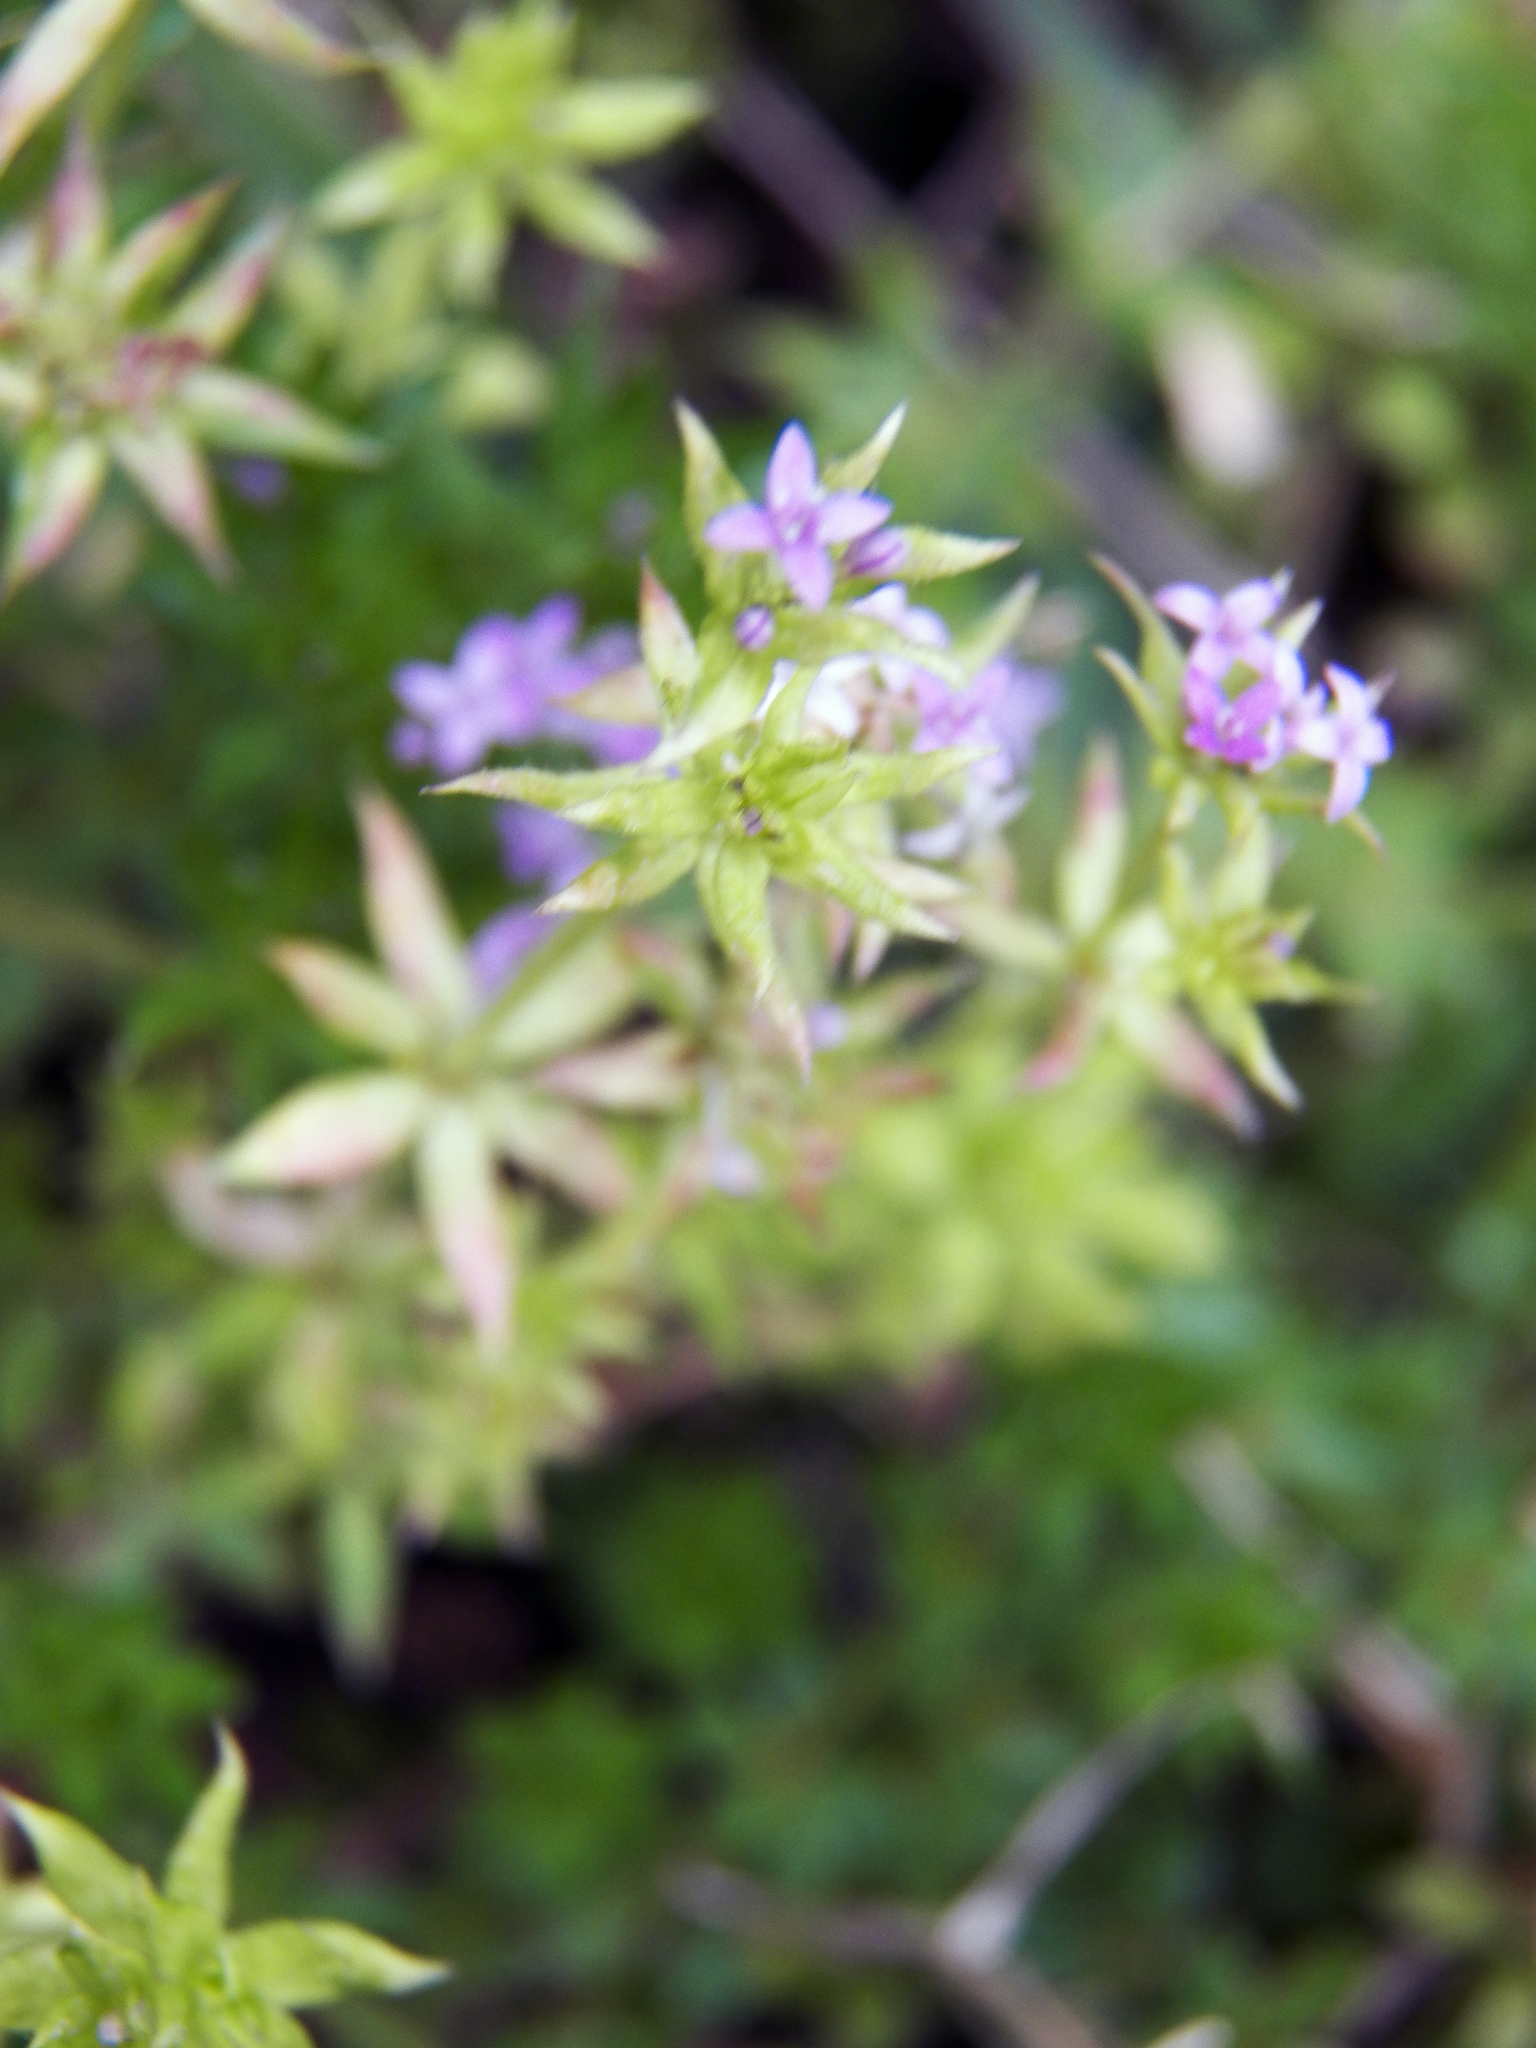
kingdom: Plantae
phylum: Tracheophyta
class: Magnoliopsida
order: Gentianales
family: Rubiaceae
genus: Sherardia
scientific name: Sherardia arvensis
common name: Field madder
